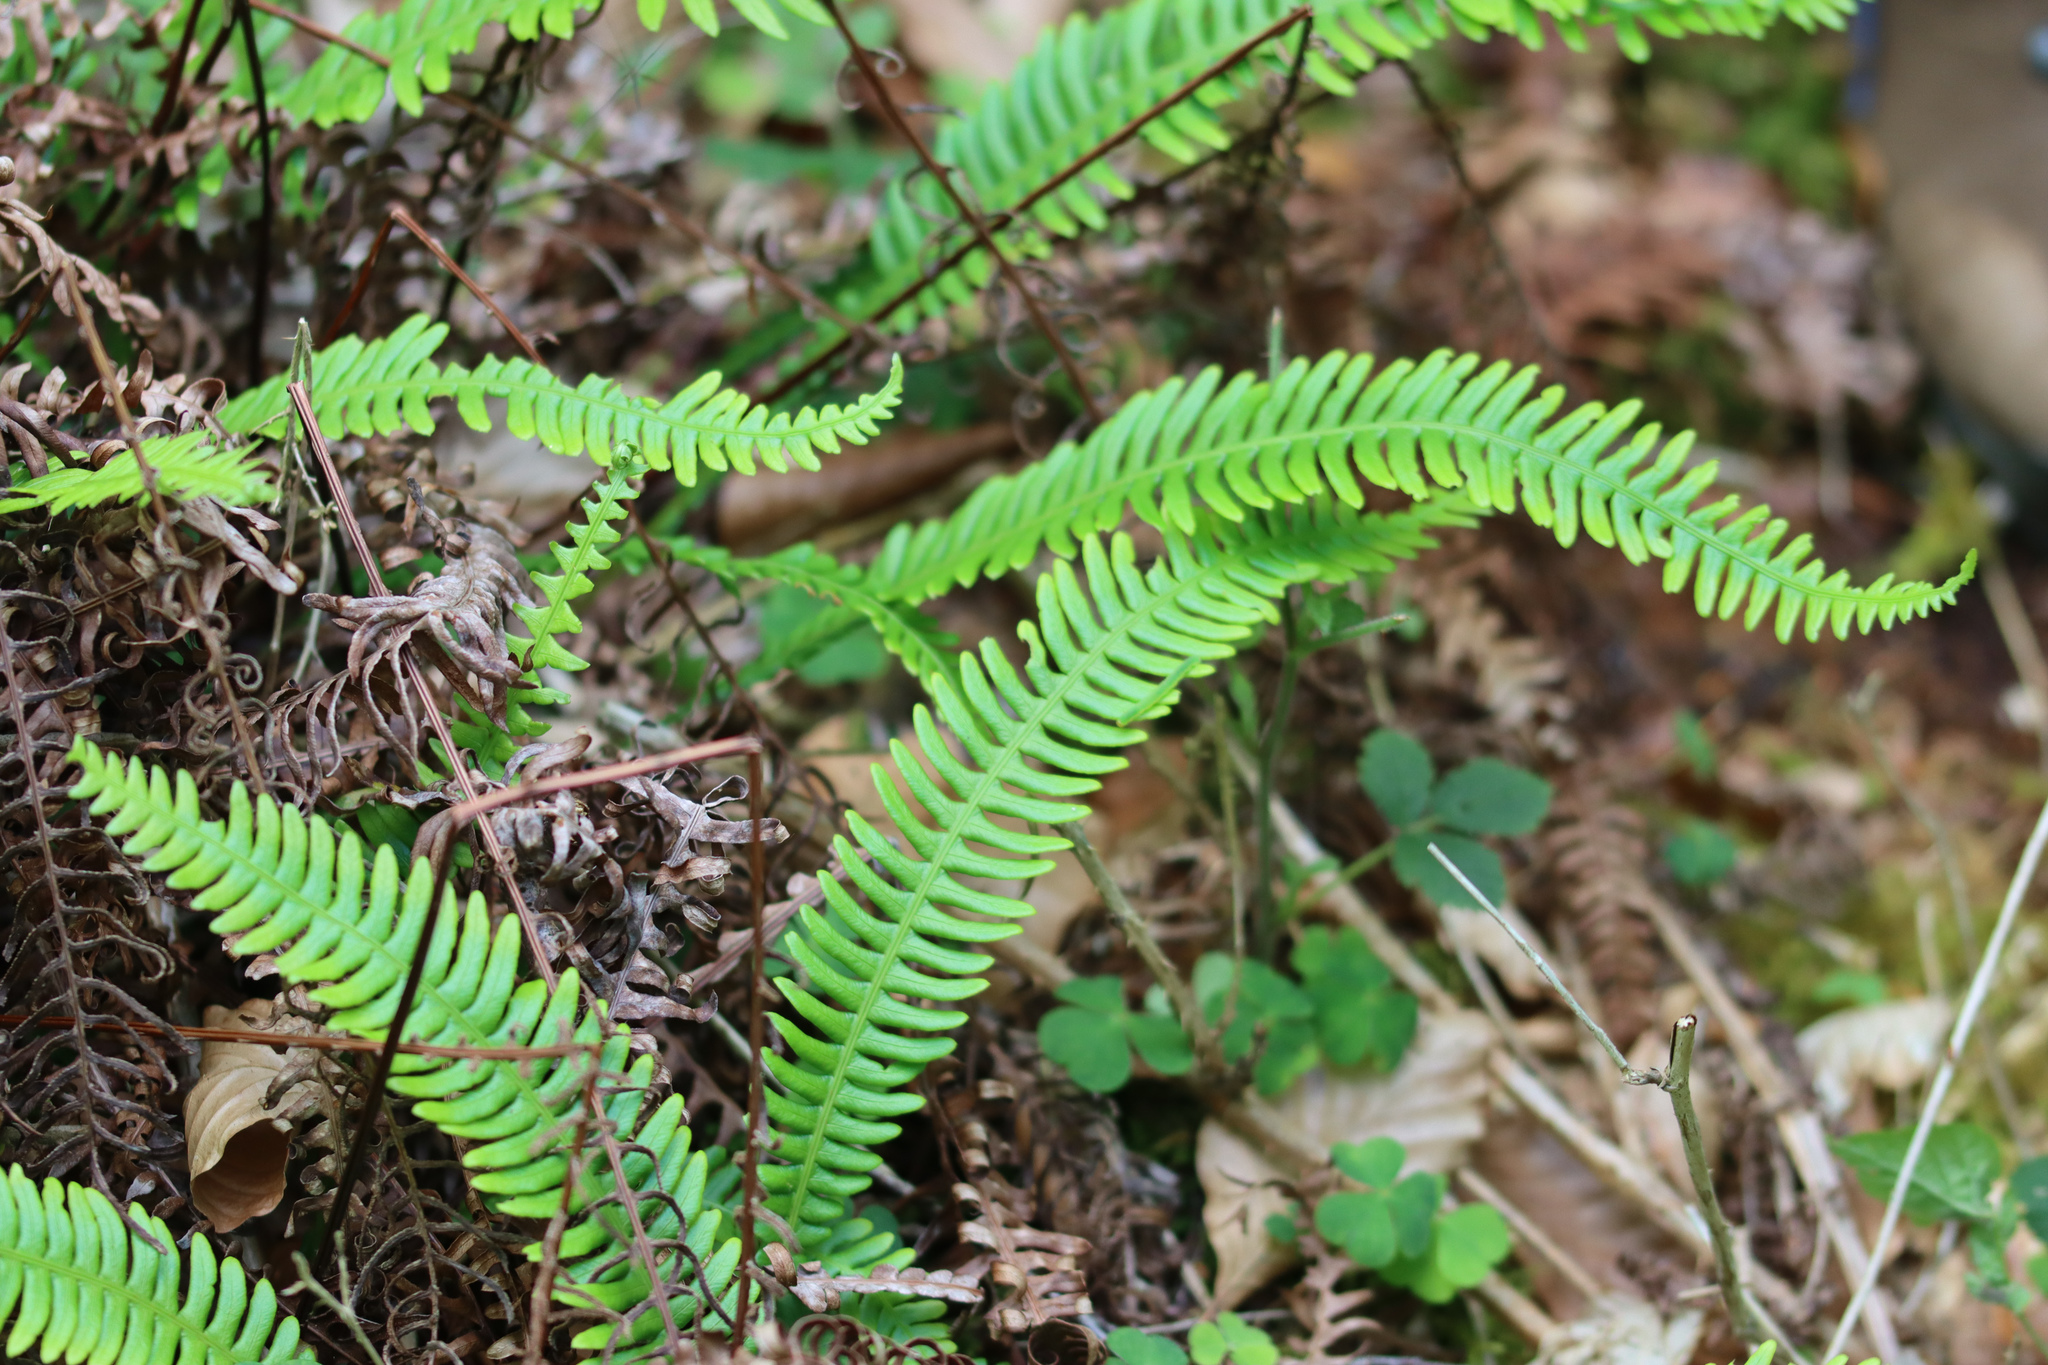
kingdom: Plantae
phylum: Tracheophyta
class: Polypodiopsida
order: Polypodiales
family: Blechnaceae
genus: Struthiopteris
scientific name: Struthiopteris spicant
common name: Deer fern
